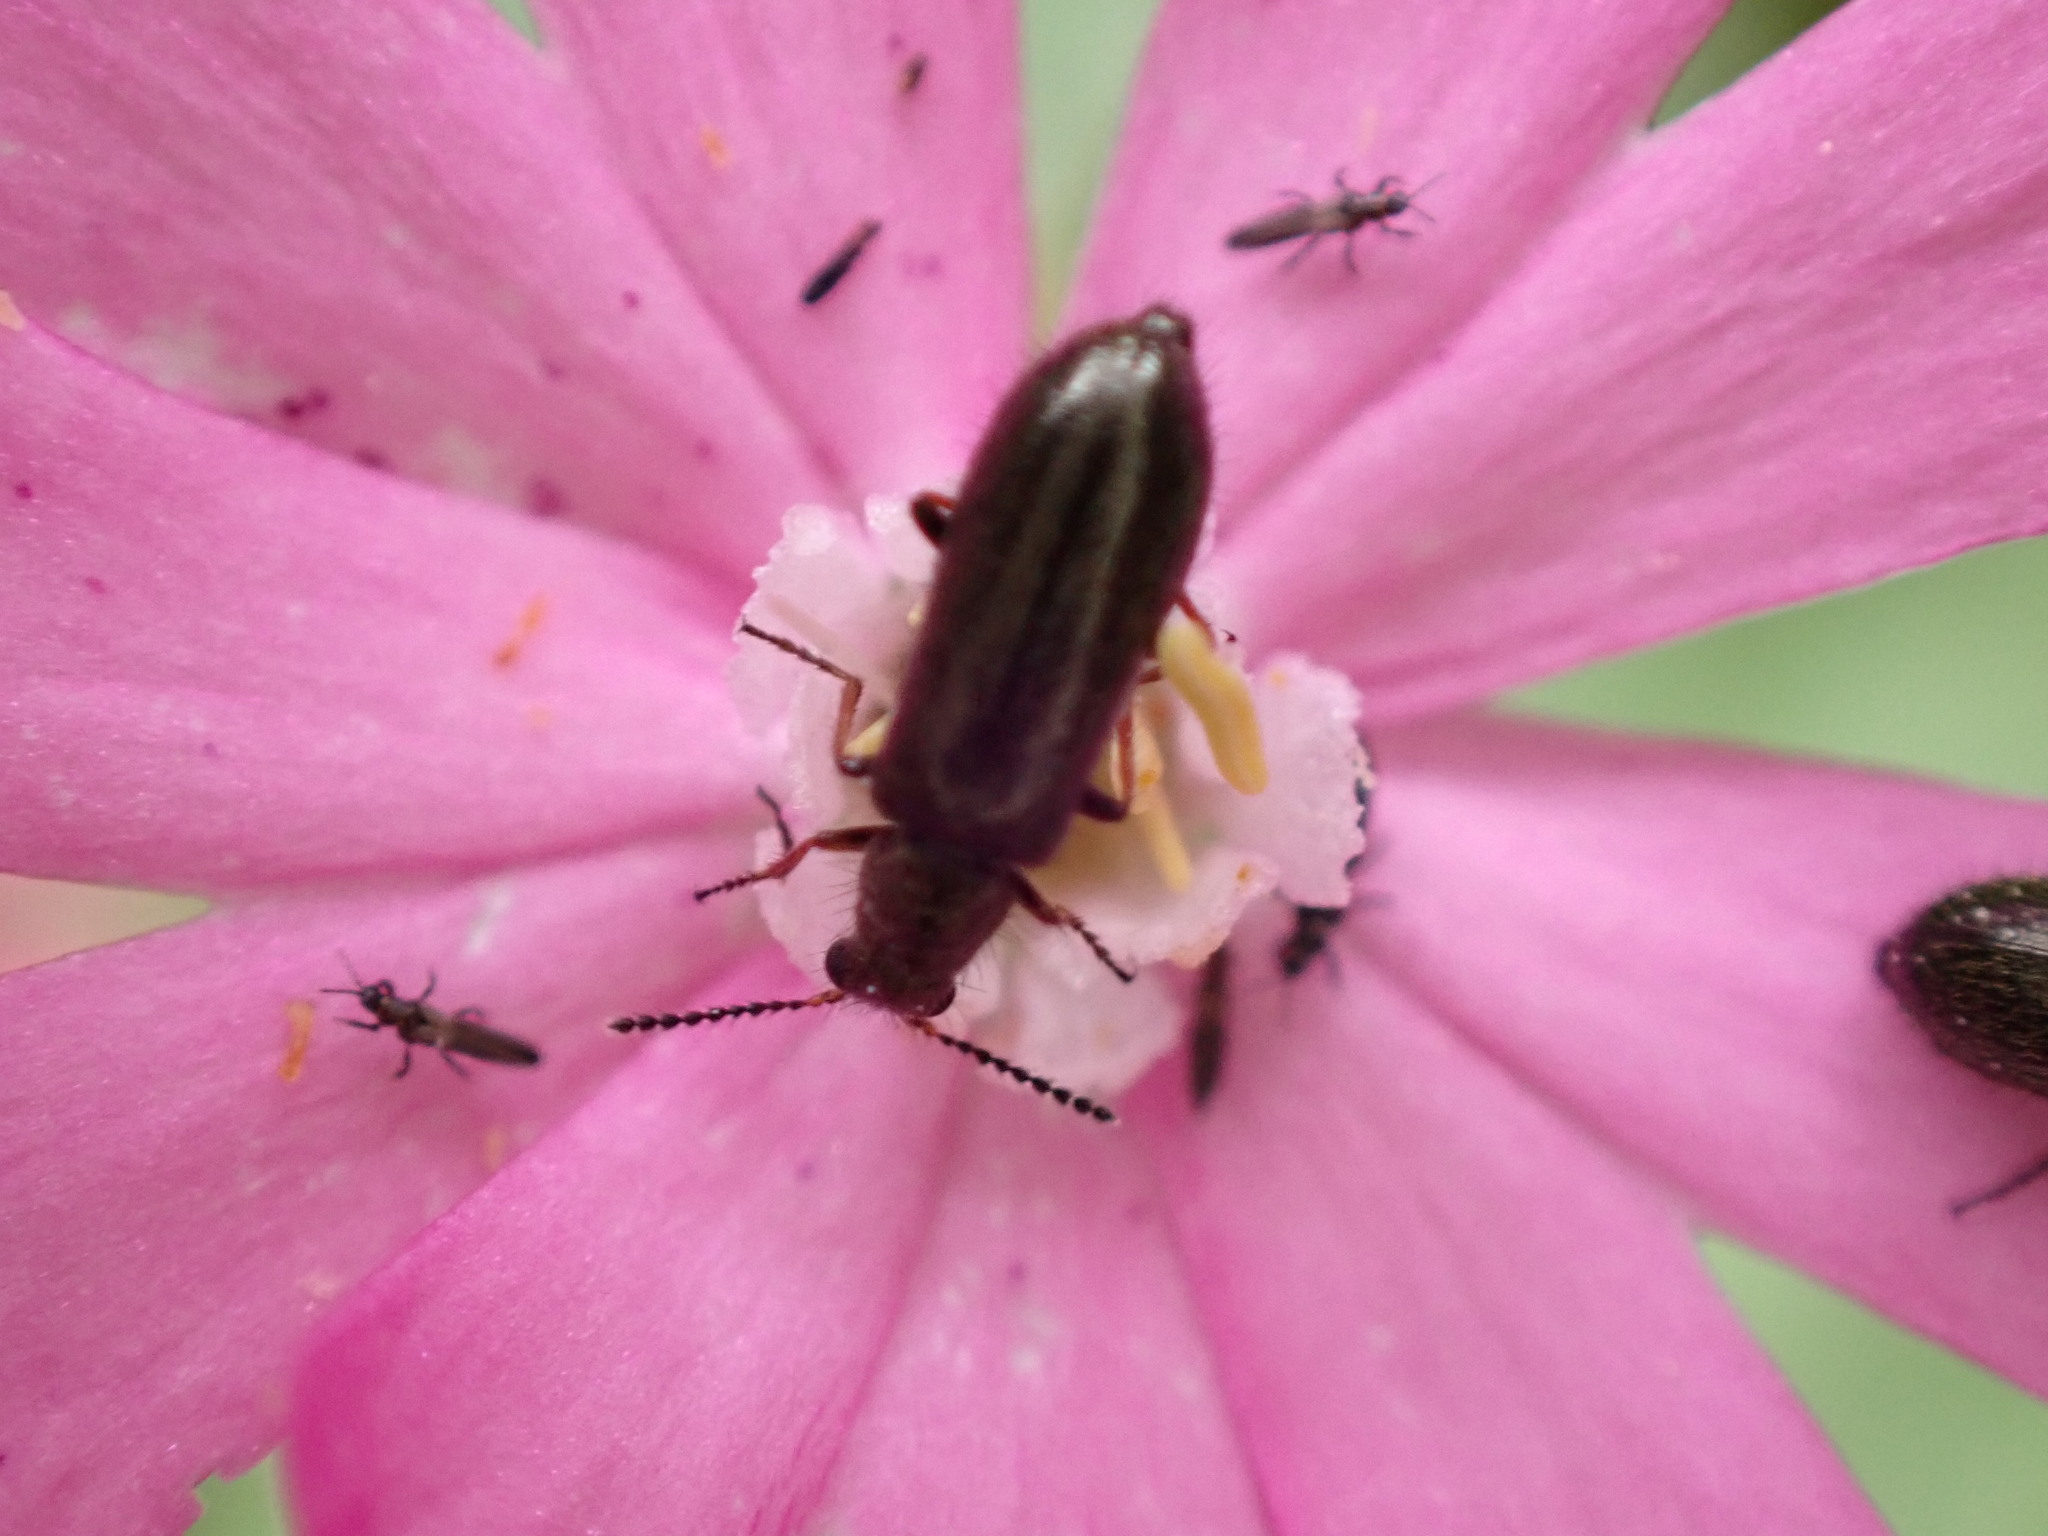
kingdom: Animalia
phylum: Arthropoda
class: Insecta
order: Coleoptera
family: Melyridae
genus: Dasytes
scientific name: Dasytes plumbeus
